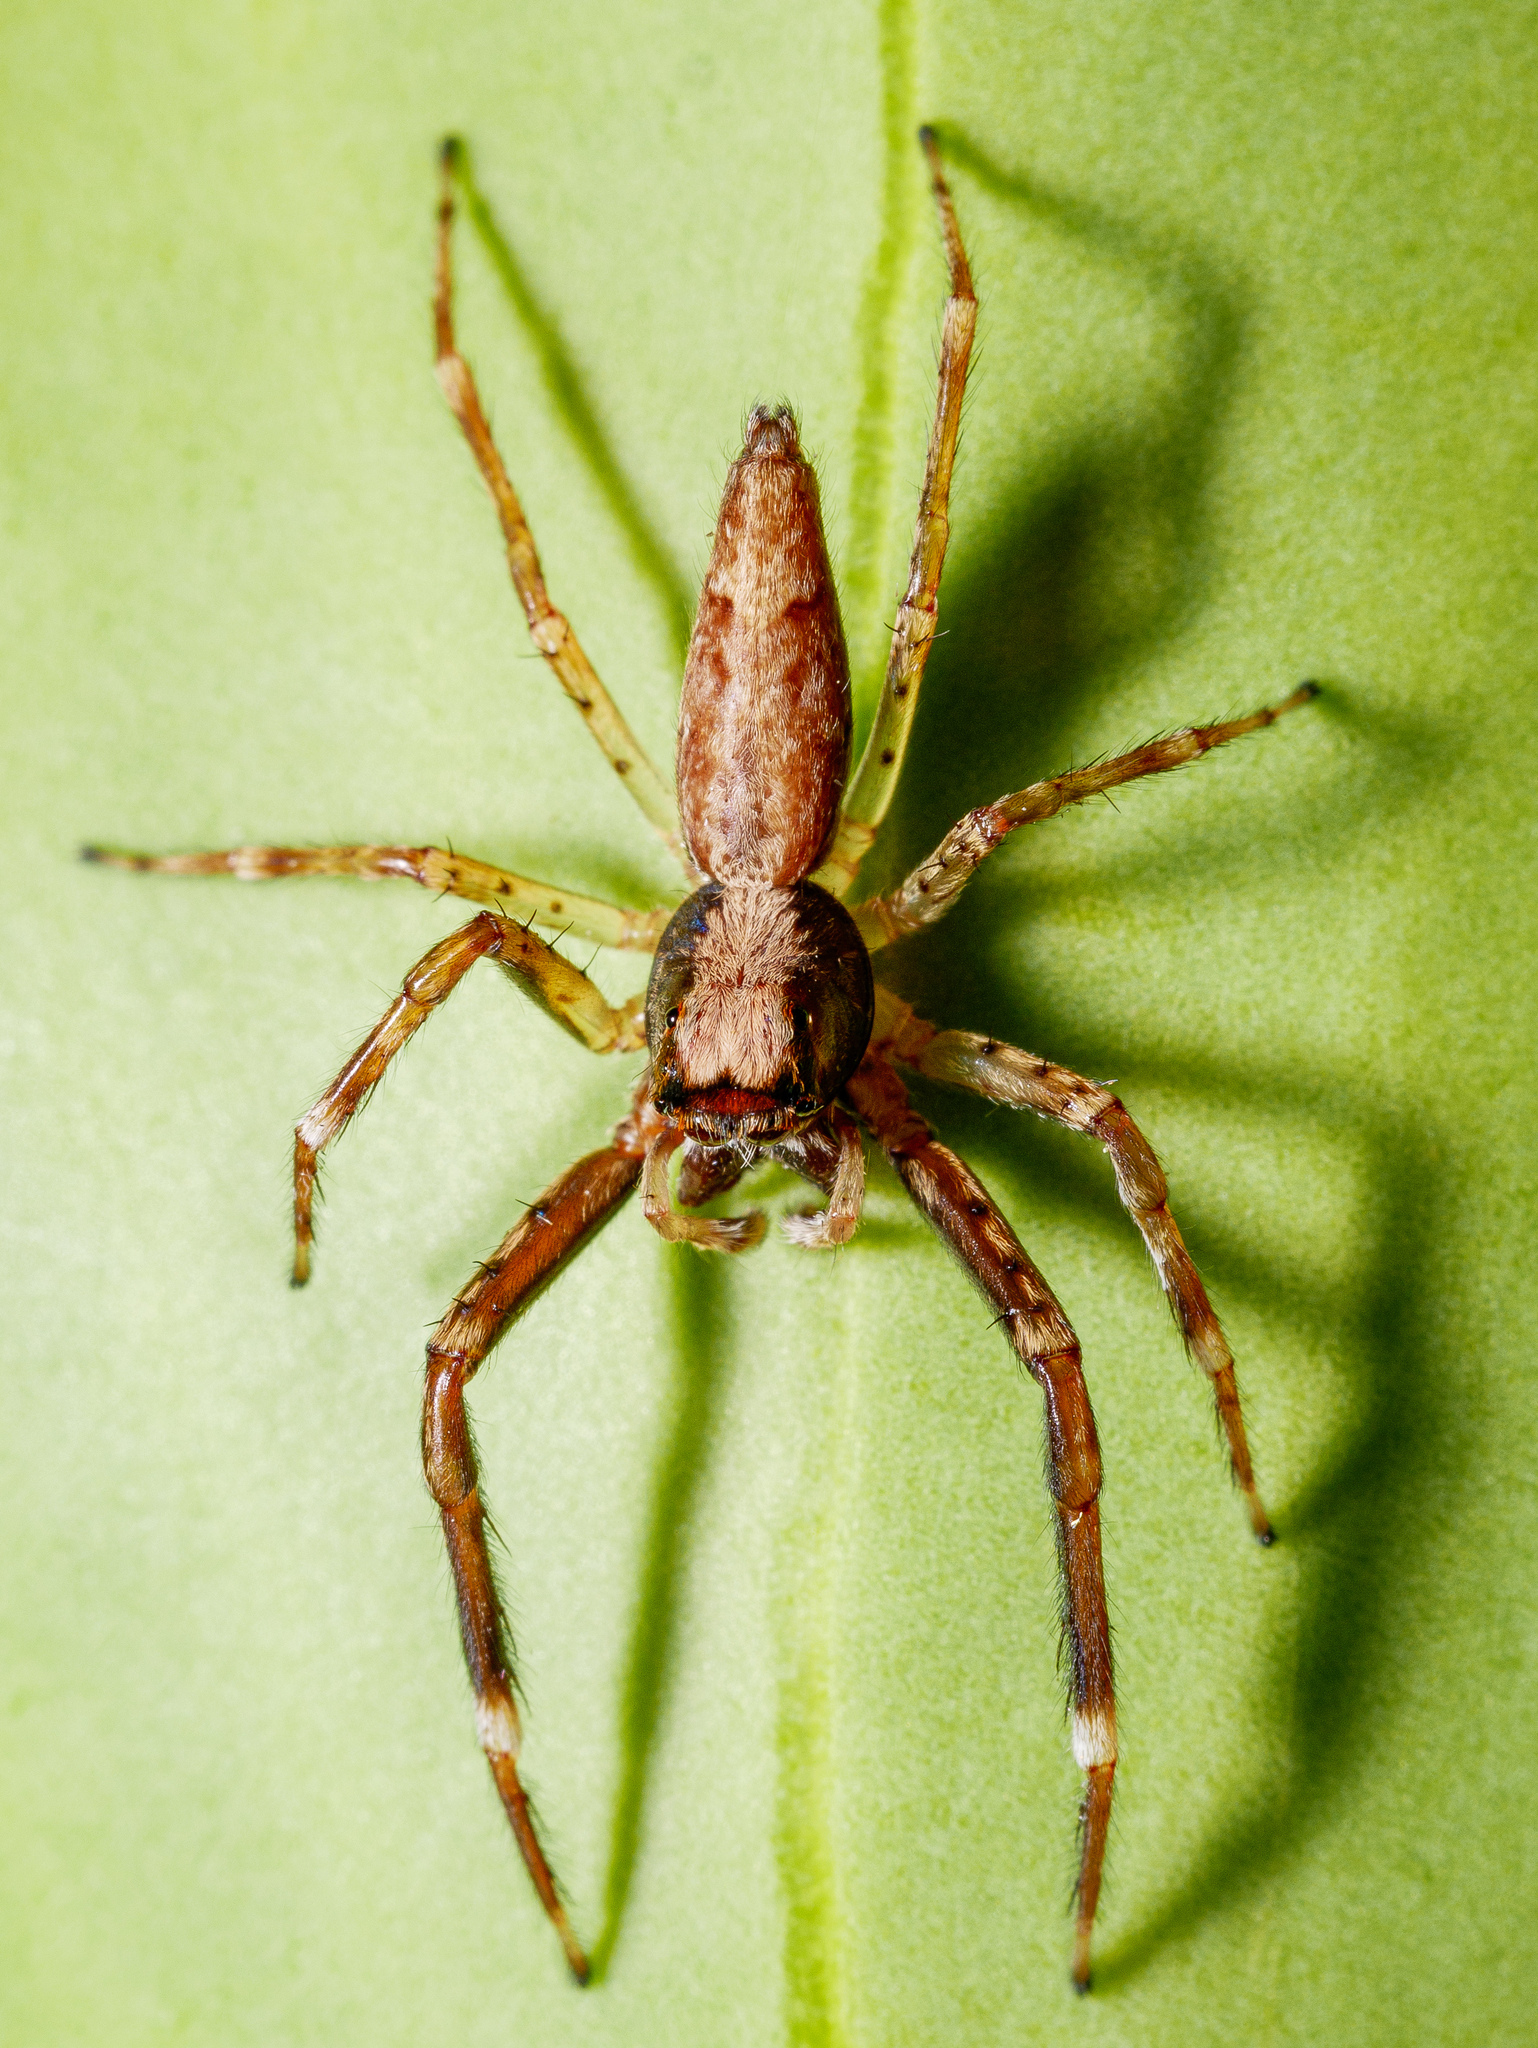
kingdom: Animalia
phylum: Arthropoda
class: Arachnida
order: Araneae
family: Salticidae
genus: Helpis
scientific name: Helpis minitabunda
